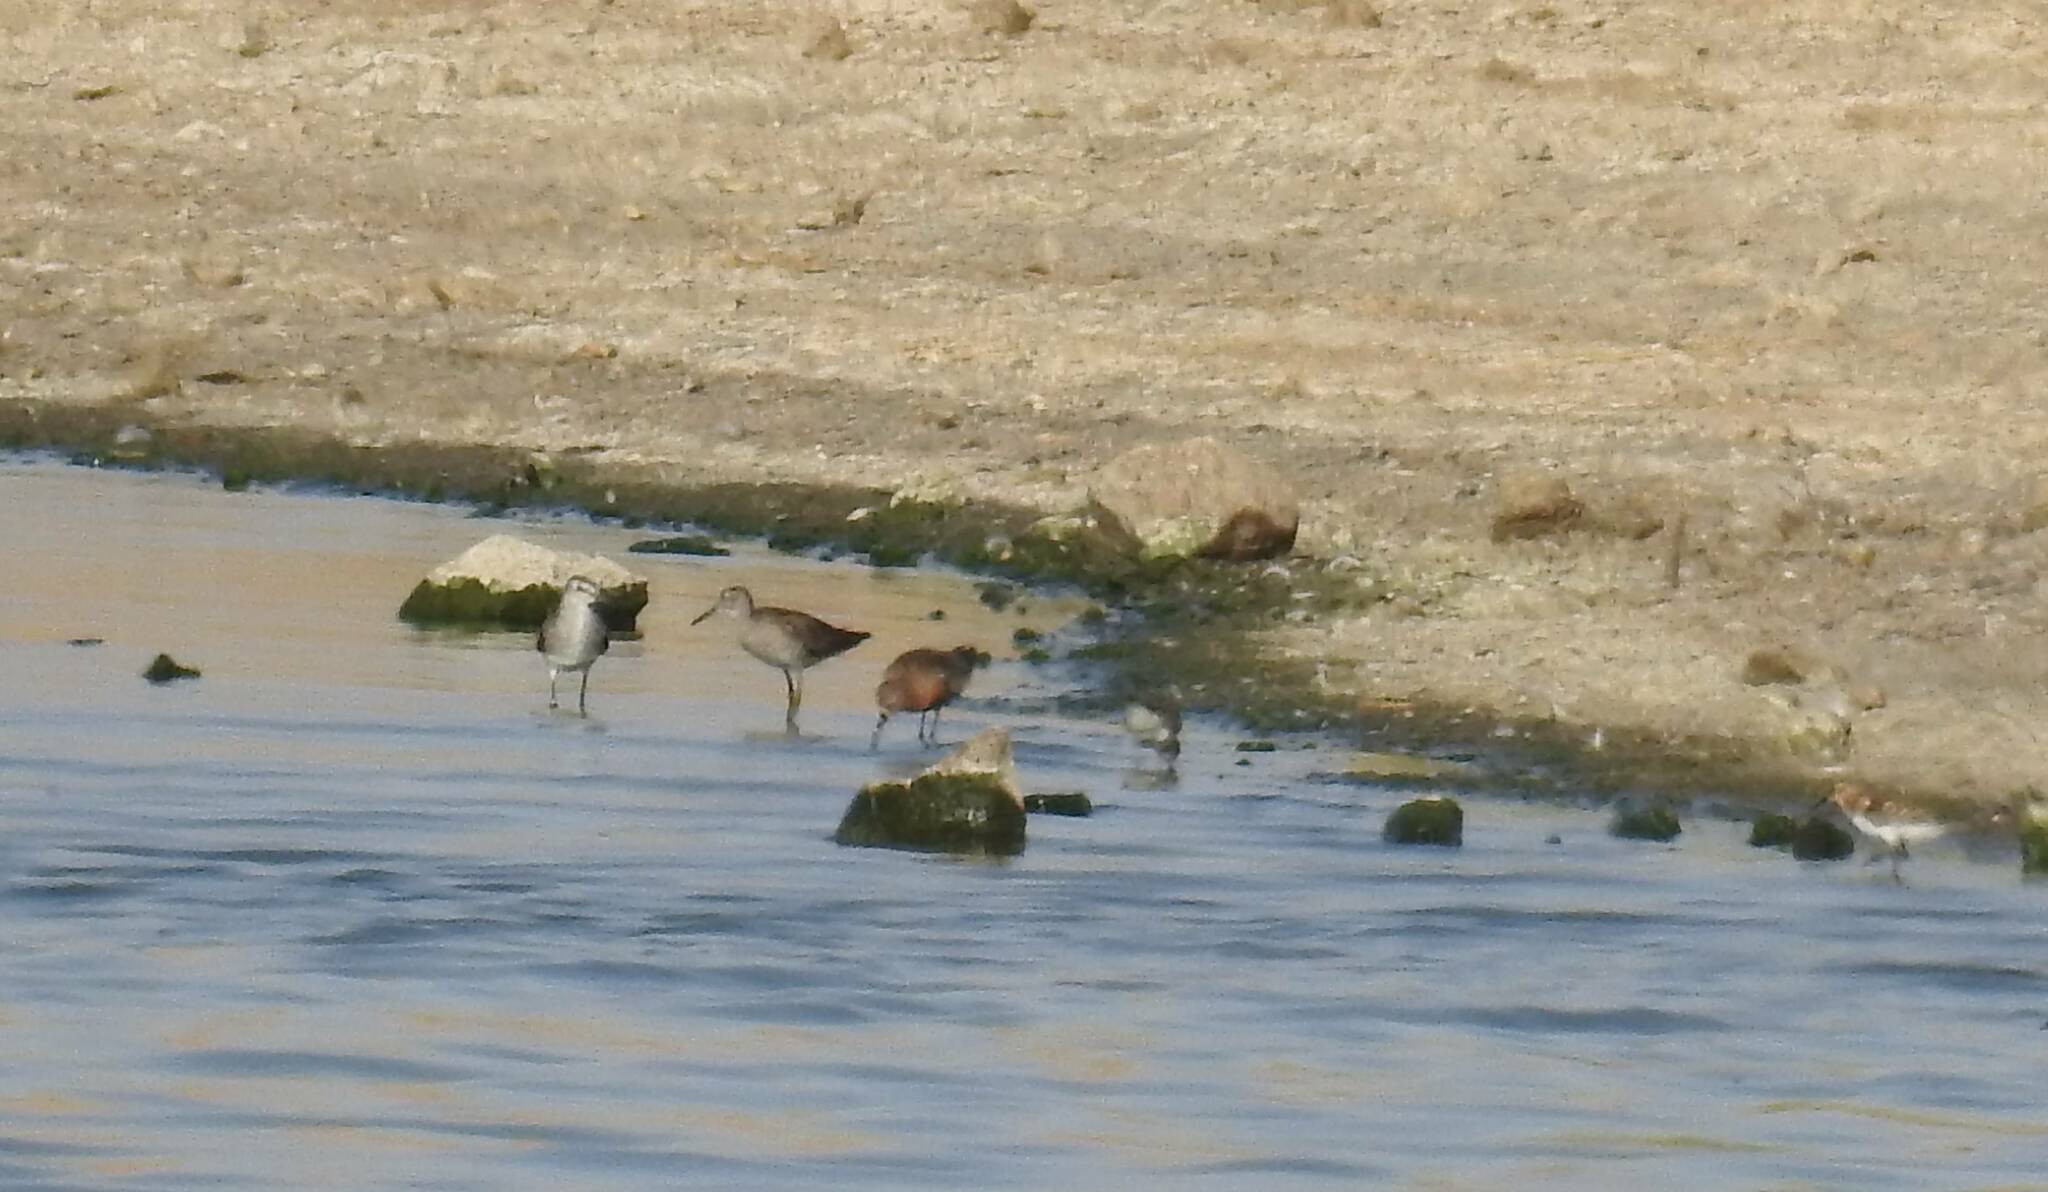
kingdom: Animalia
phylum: Chordata
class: Aves
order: Charadriiformes
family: Scolopacidae
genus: Calidris
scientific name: Calidris ferruginea
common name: Curlew sandpiper
